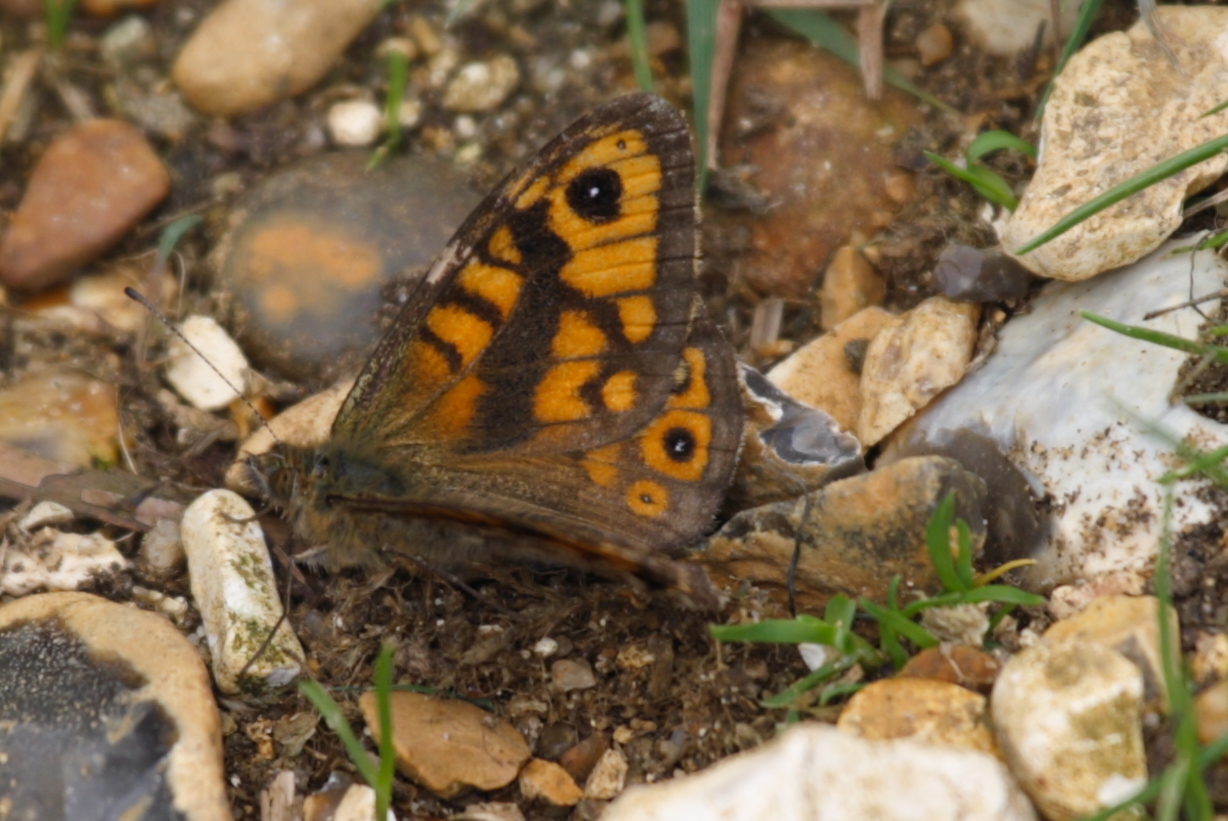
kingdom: Animalia
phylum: Arthropoda
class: Insecta
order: Lepidoptera
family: Nymphalidae
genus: Pararge
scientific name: Pararge Lasiommata megera
